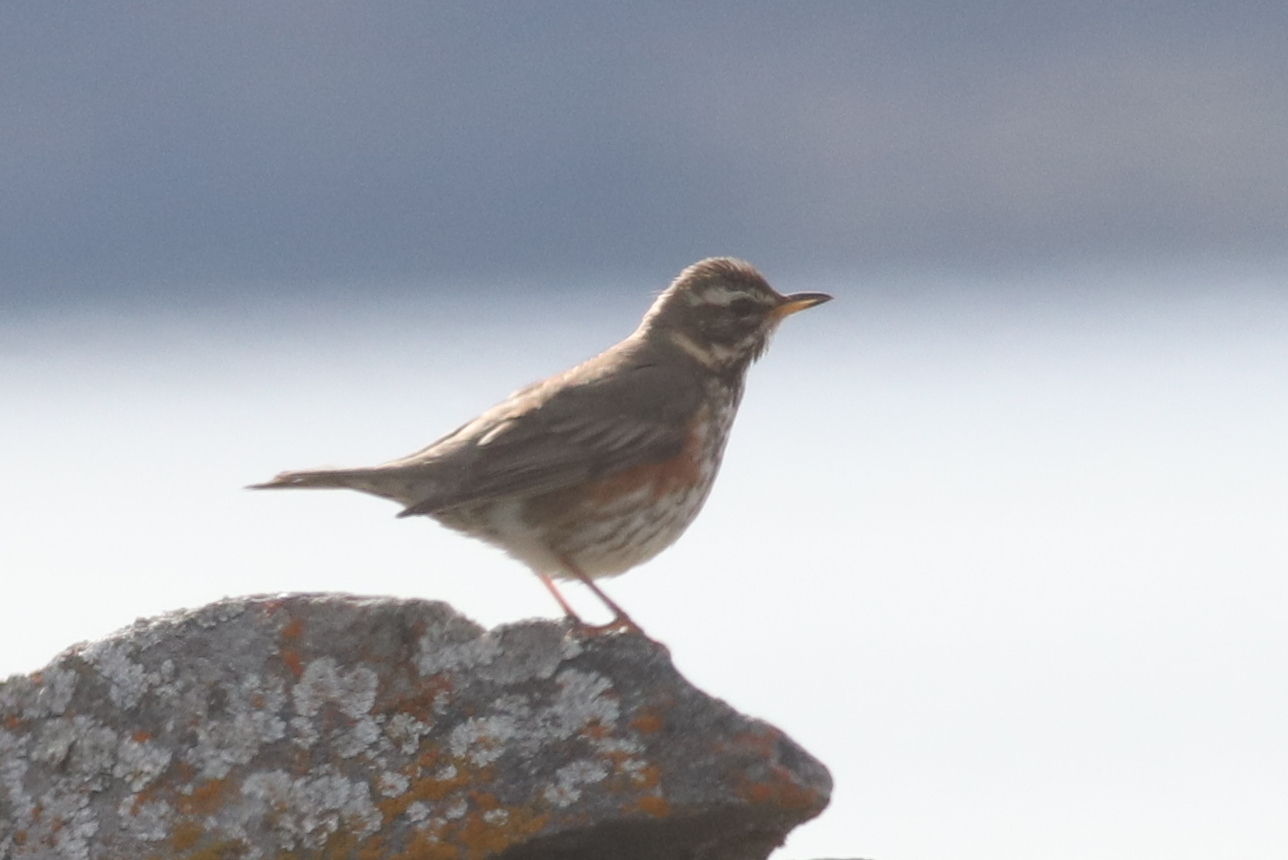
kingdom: Animalia
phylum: Chordata
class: Aves
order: Passeriformes
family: Turdidae
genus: Turdus
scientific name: Turdus iliacus
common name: Redwing
